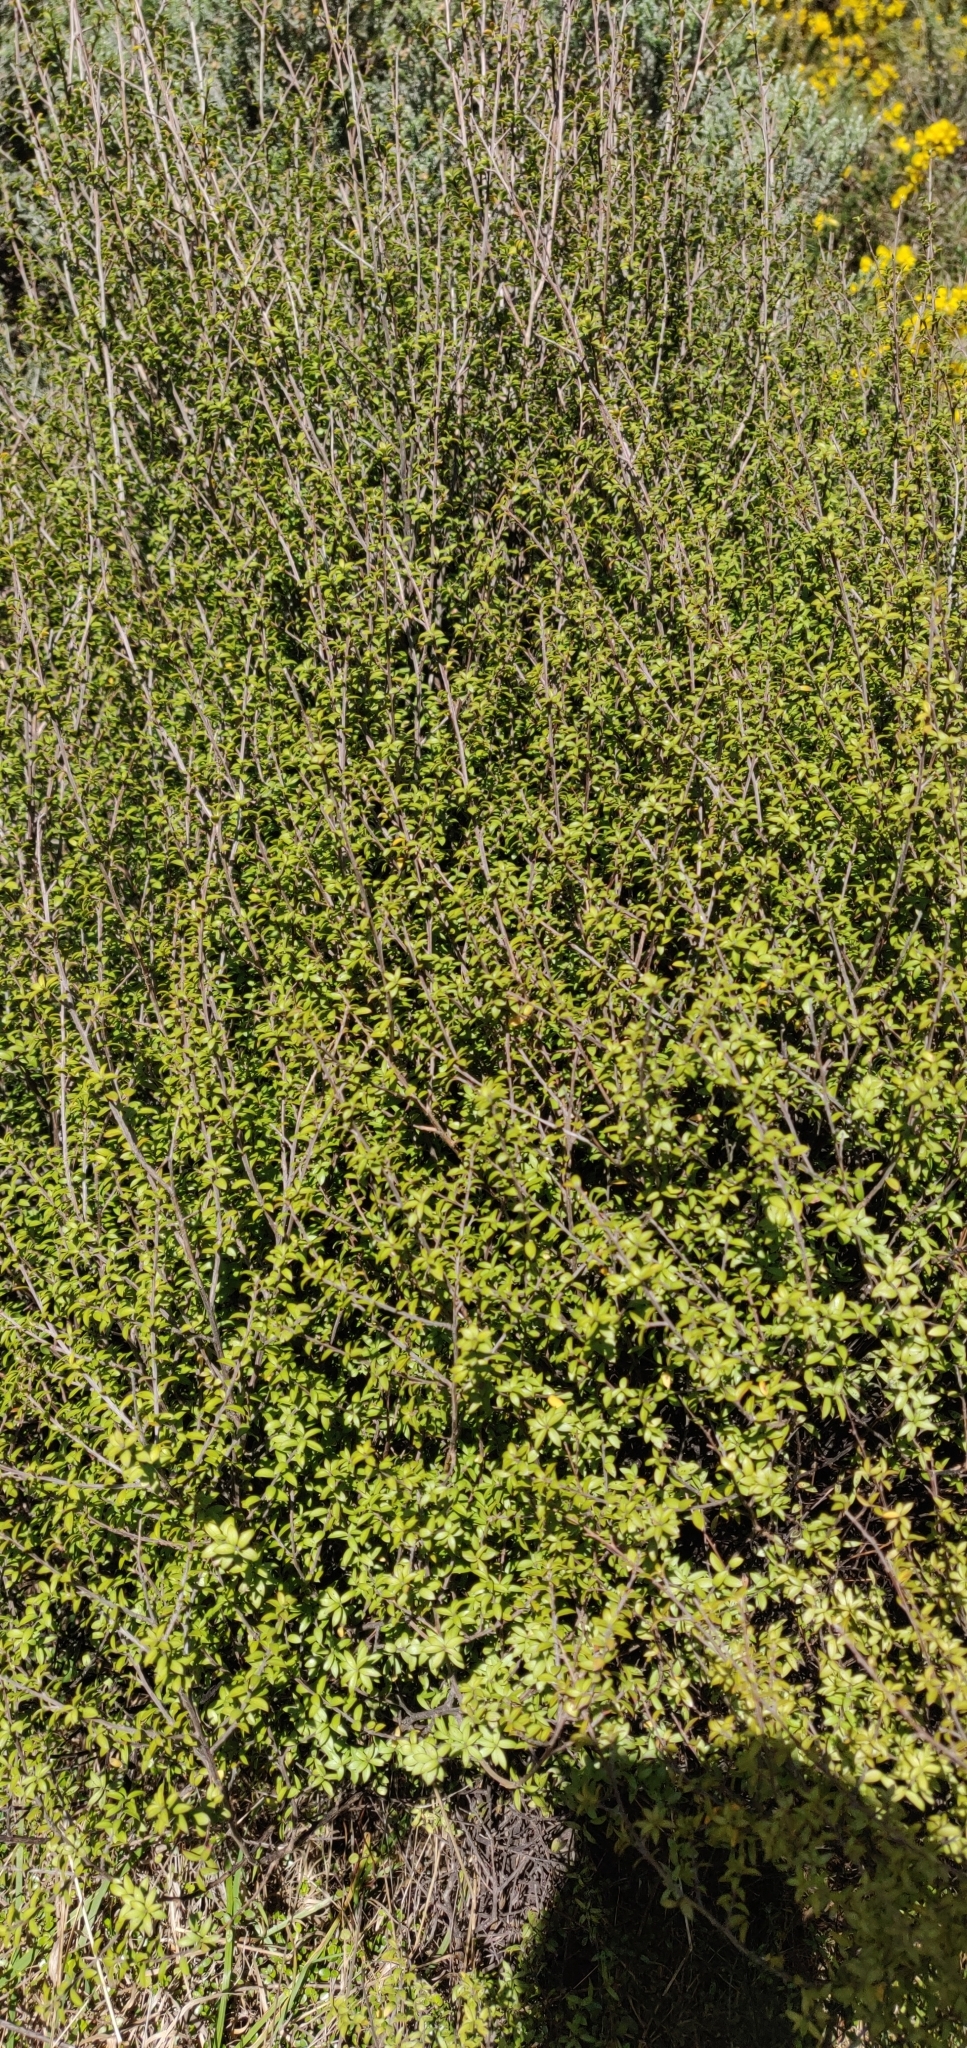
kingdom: Plantae
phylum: Tracheophyta
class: Magnoliopsida
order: Myrtales
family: Myrtaceae
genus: Leptospermum
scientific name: Leptospermum scoparium
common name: Broom tea-tree
